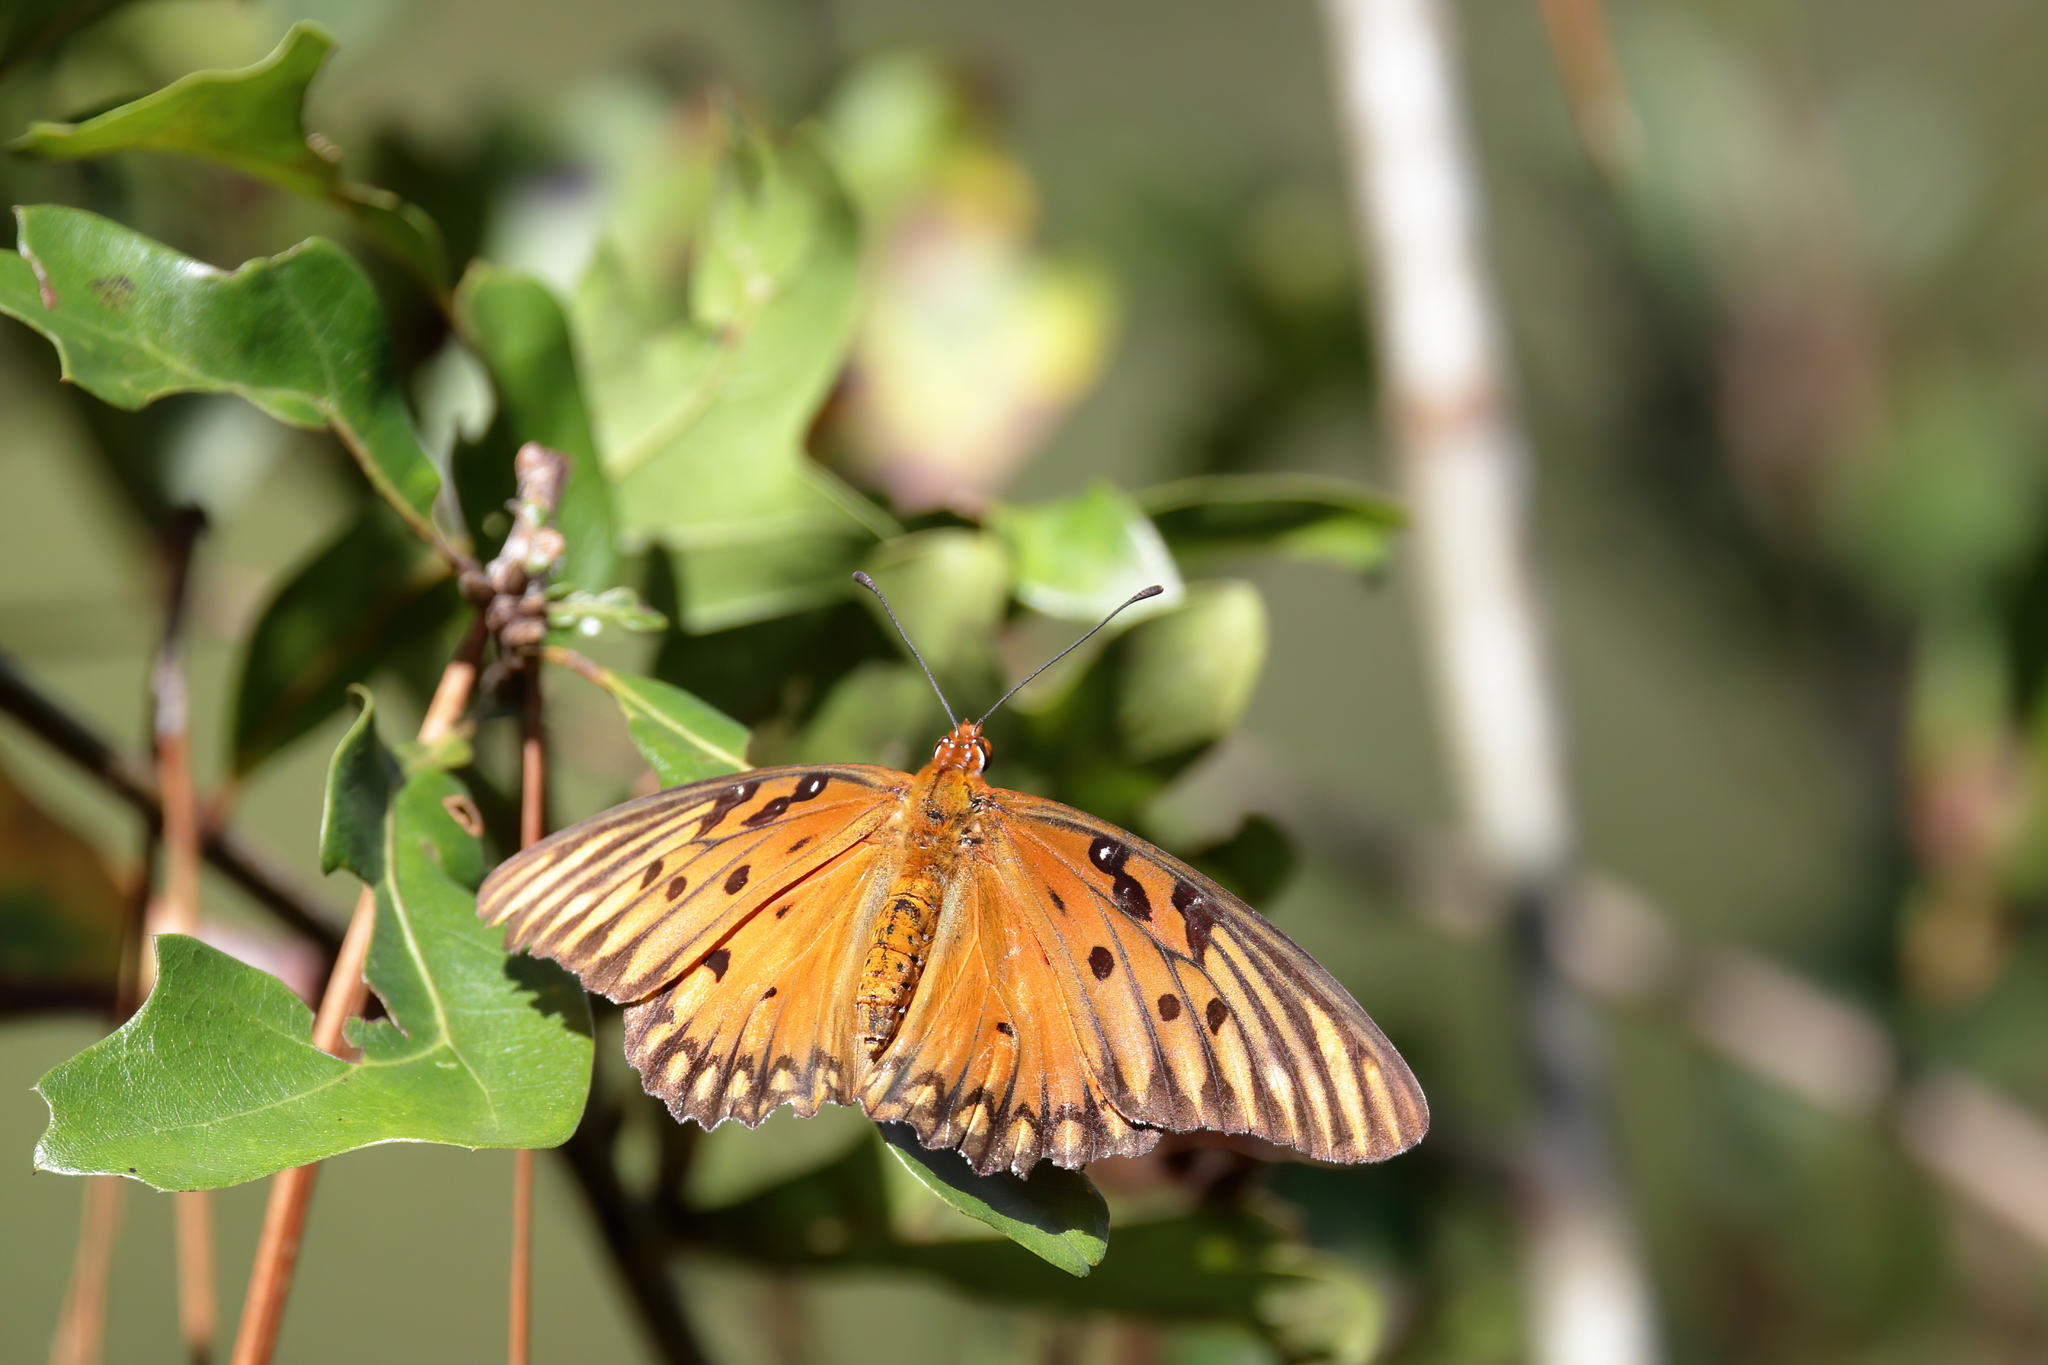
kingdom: Animalia
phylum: Arthropoda
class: Insecta
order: Lepidoptera
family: Nymphalidae
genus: Dione
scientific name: Dione vanillae
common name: Gulf fritillary
